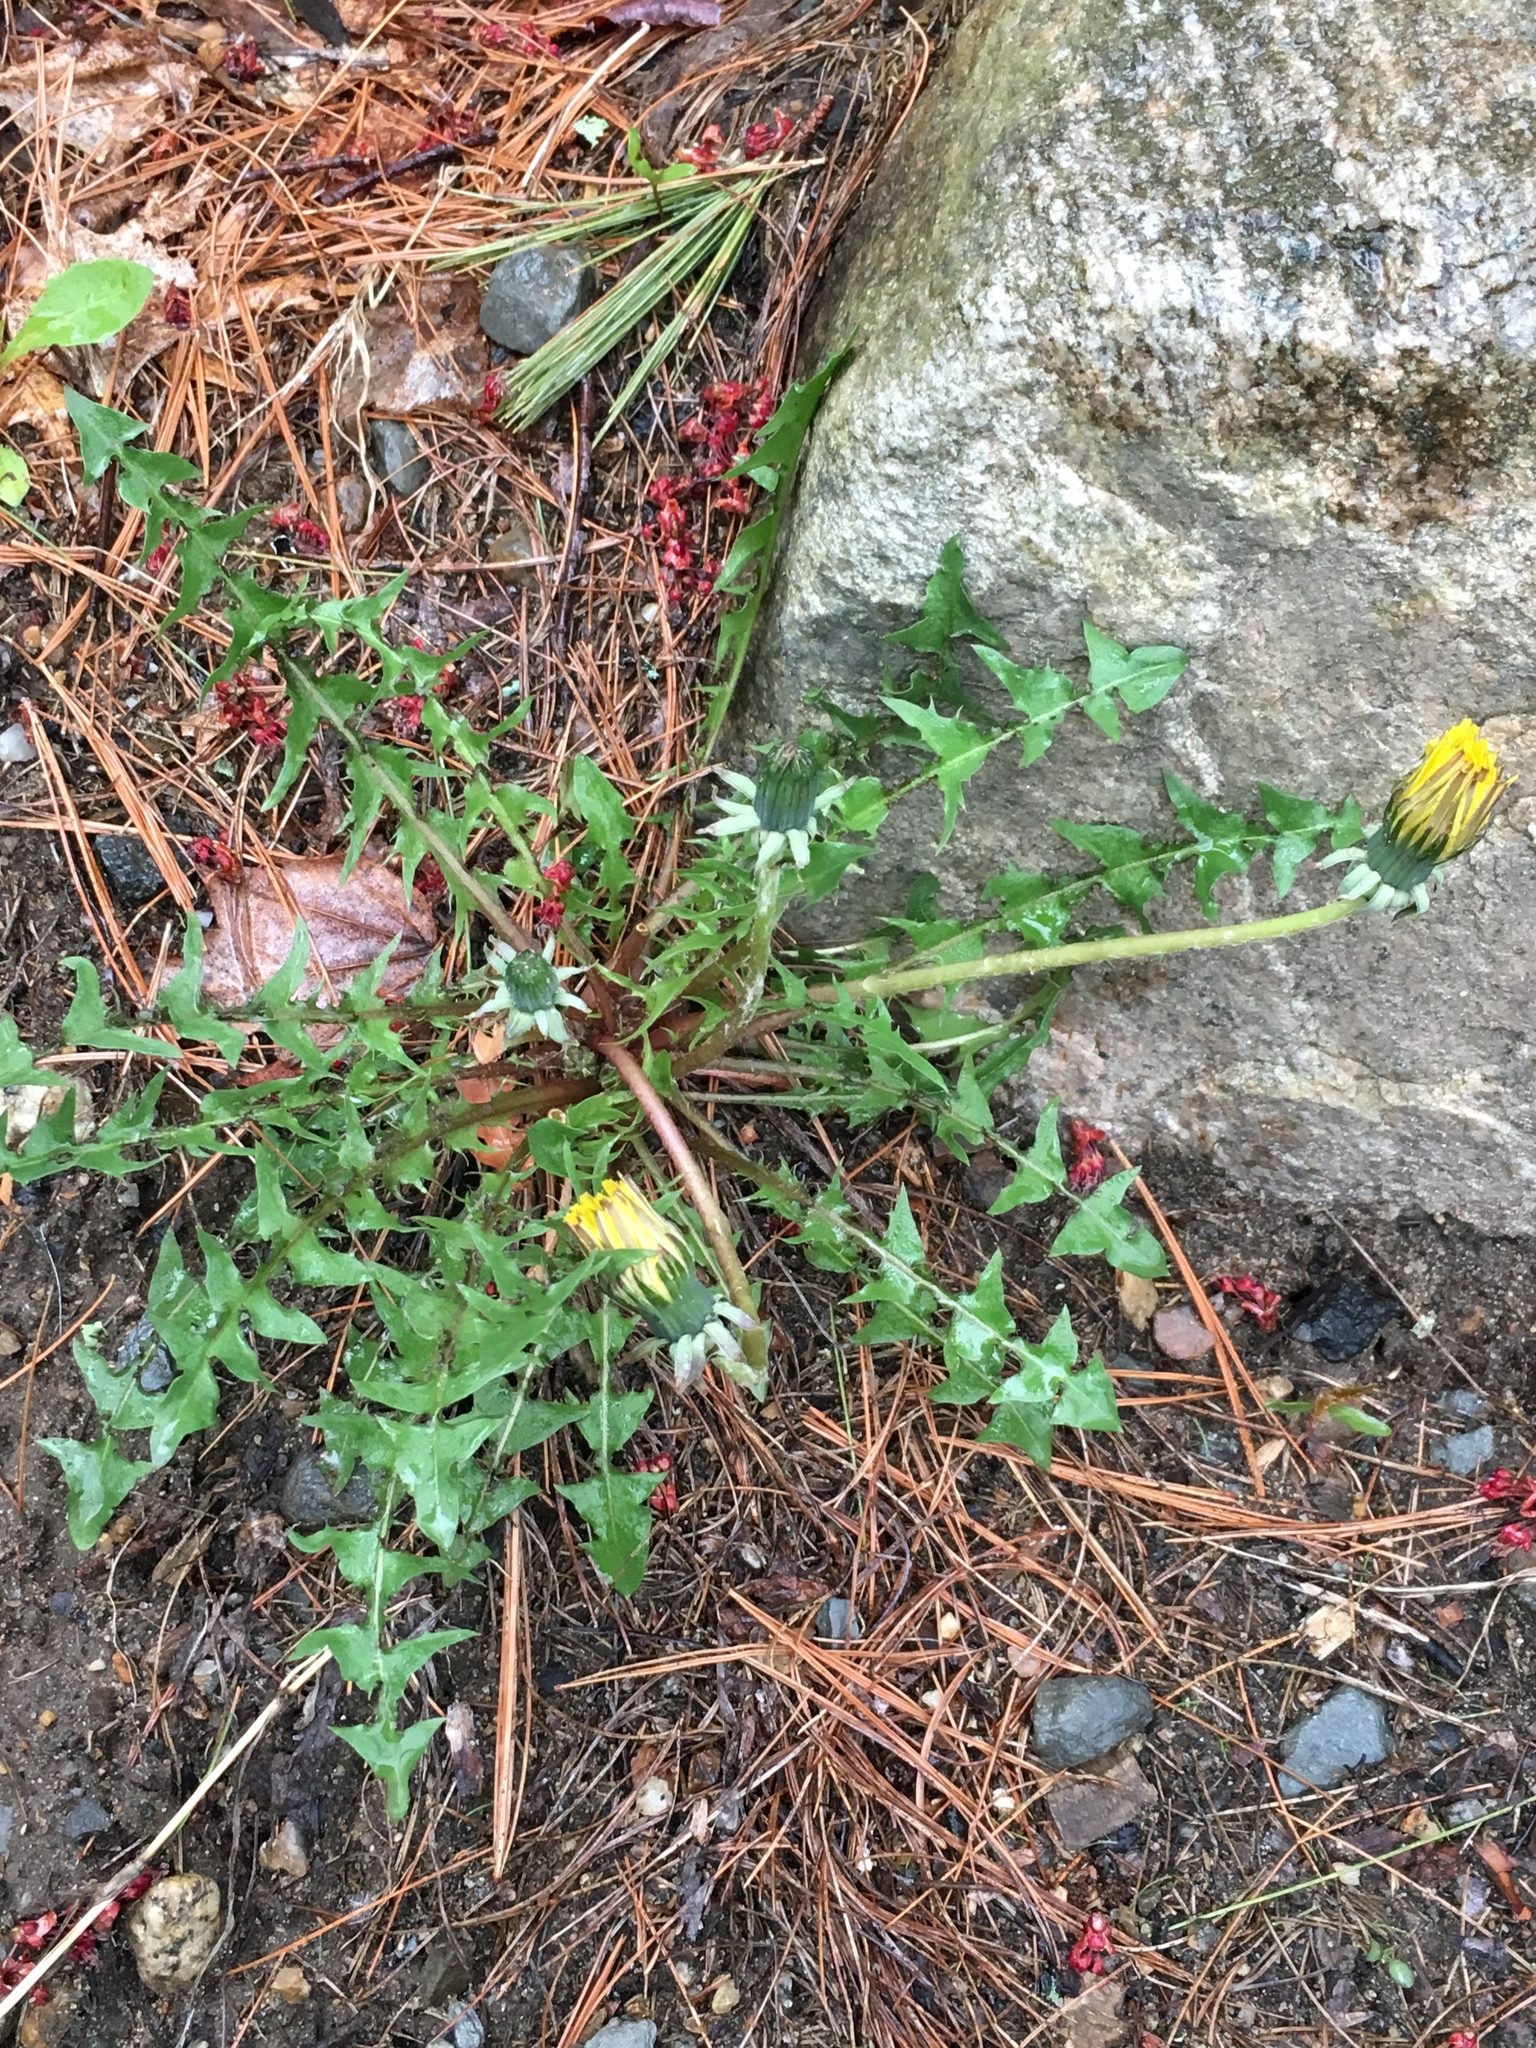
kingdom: Plantae
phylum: Tracheophyta
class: Magnoliopsida
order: Asterales
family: Asteraceae
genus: Taraxacum
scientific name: Taraxacum officinale
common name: Common dandelion
